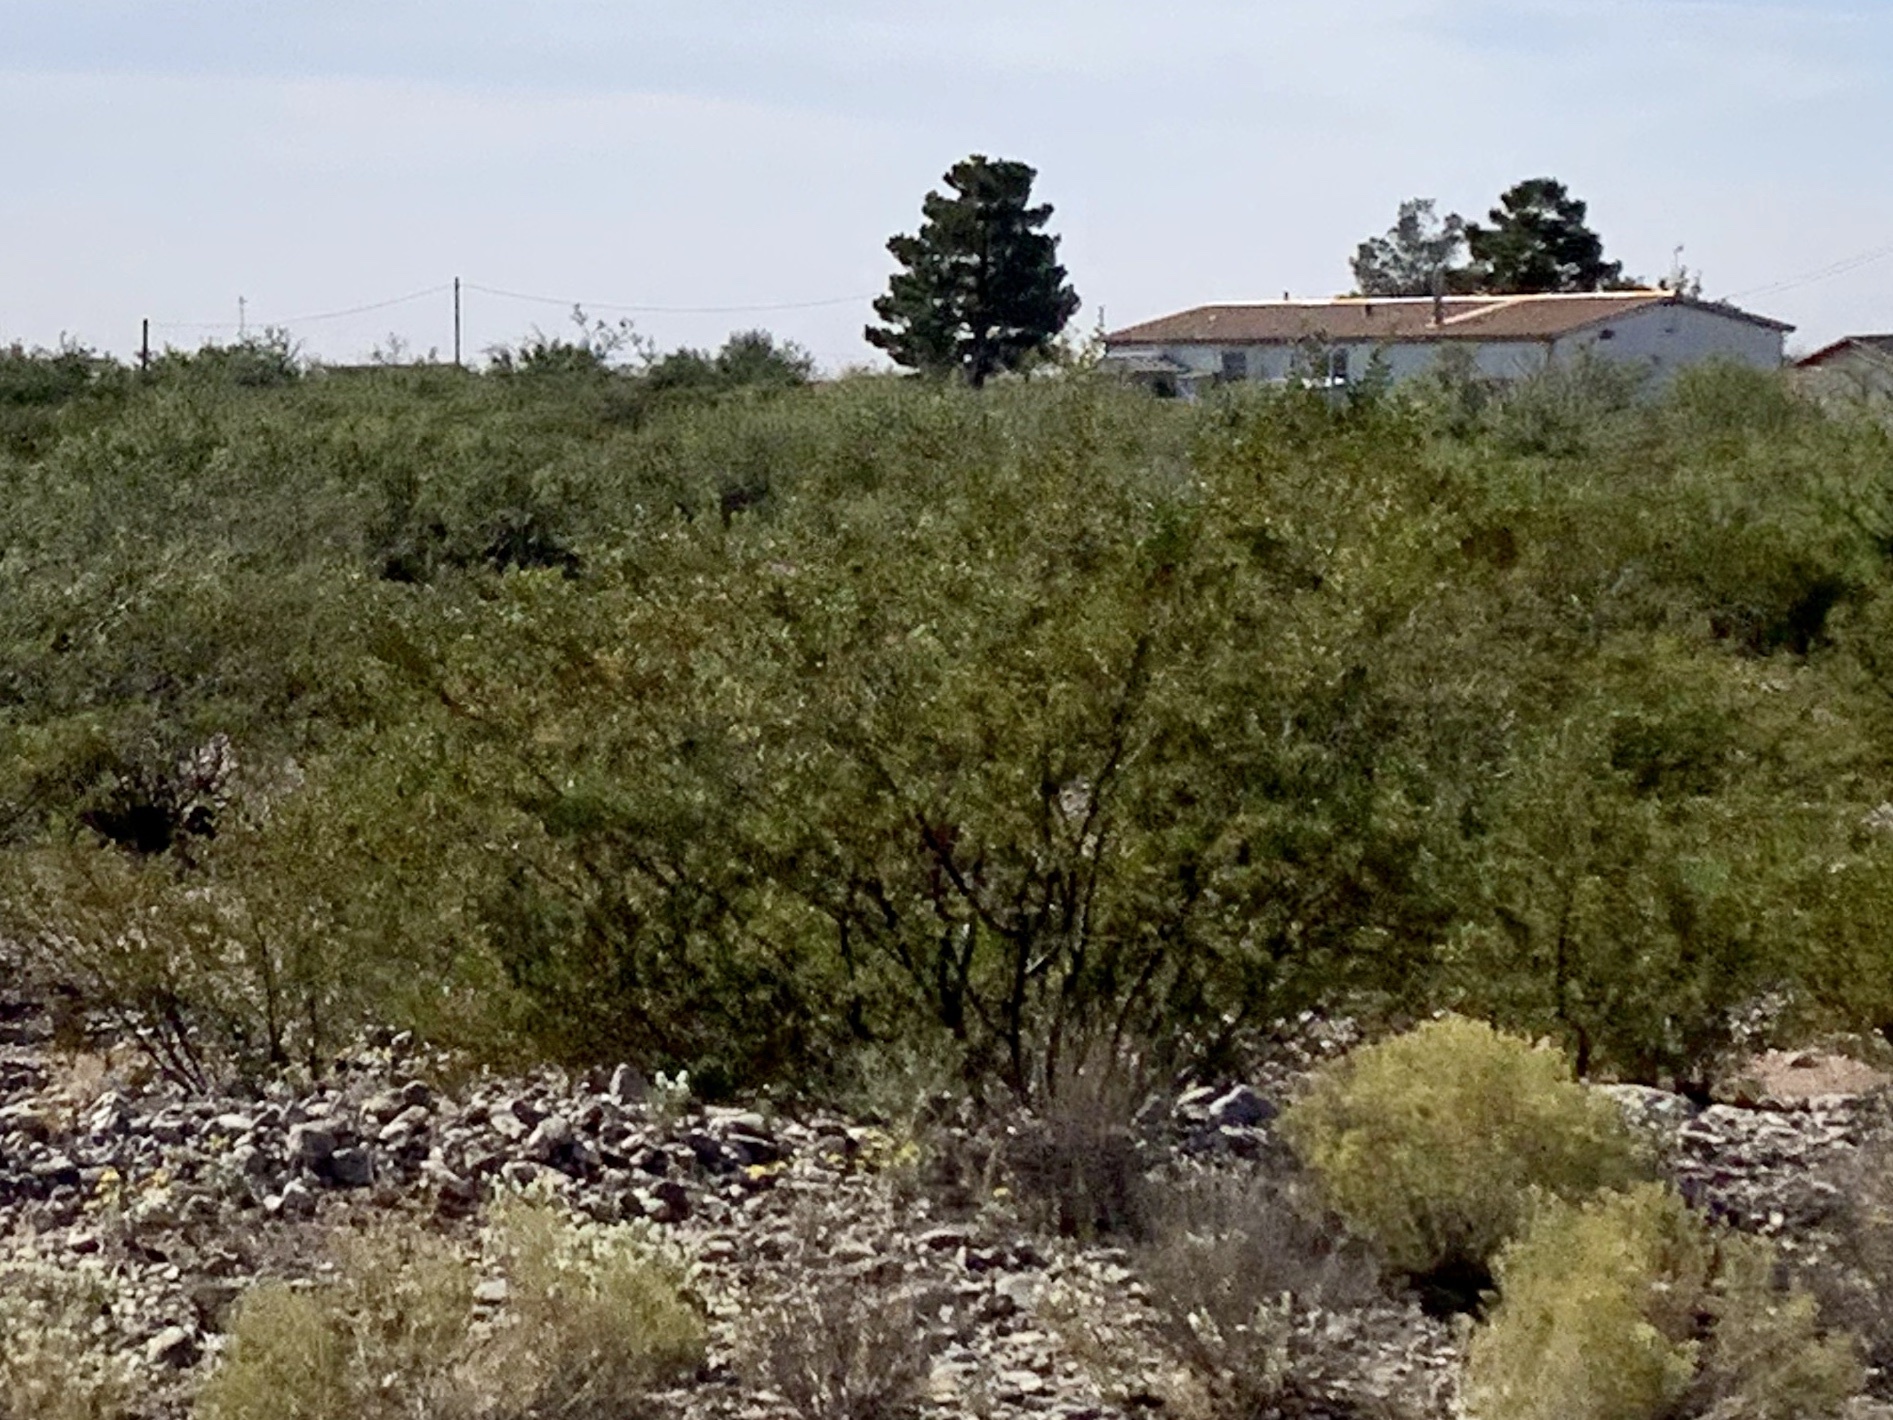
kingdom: Plantae
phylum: Tracheophyta
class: Magnoliopsida
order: Zygophyllales
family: Zygophyllaceae
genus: Larrea
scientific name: Larrea tridentata
